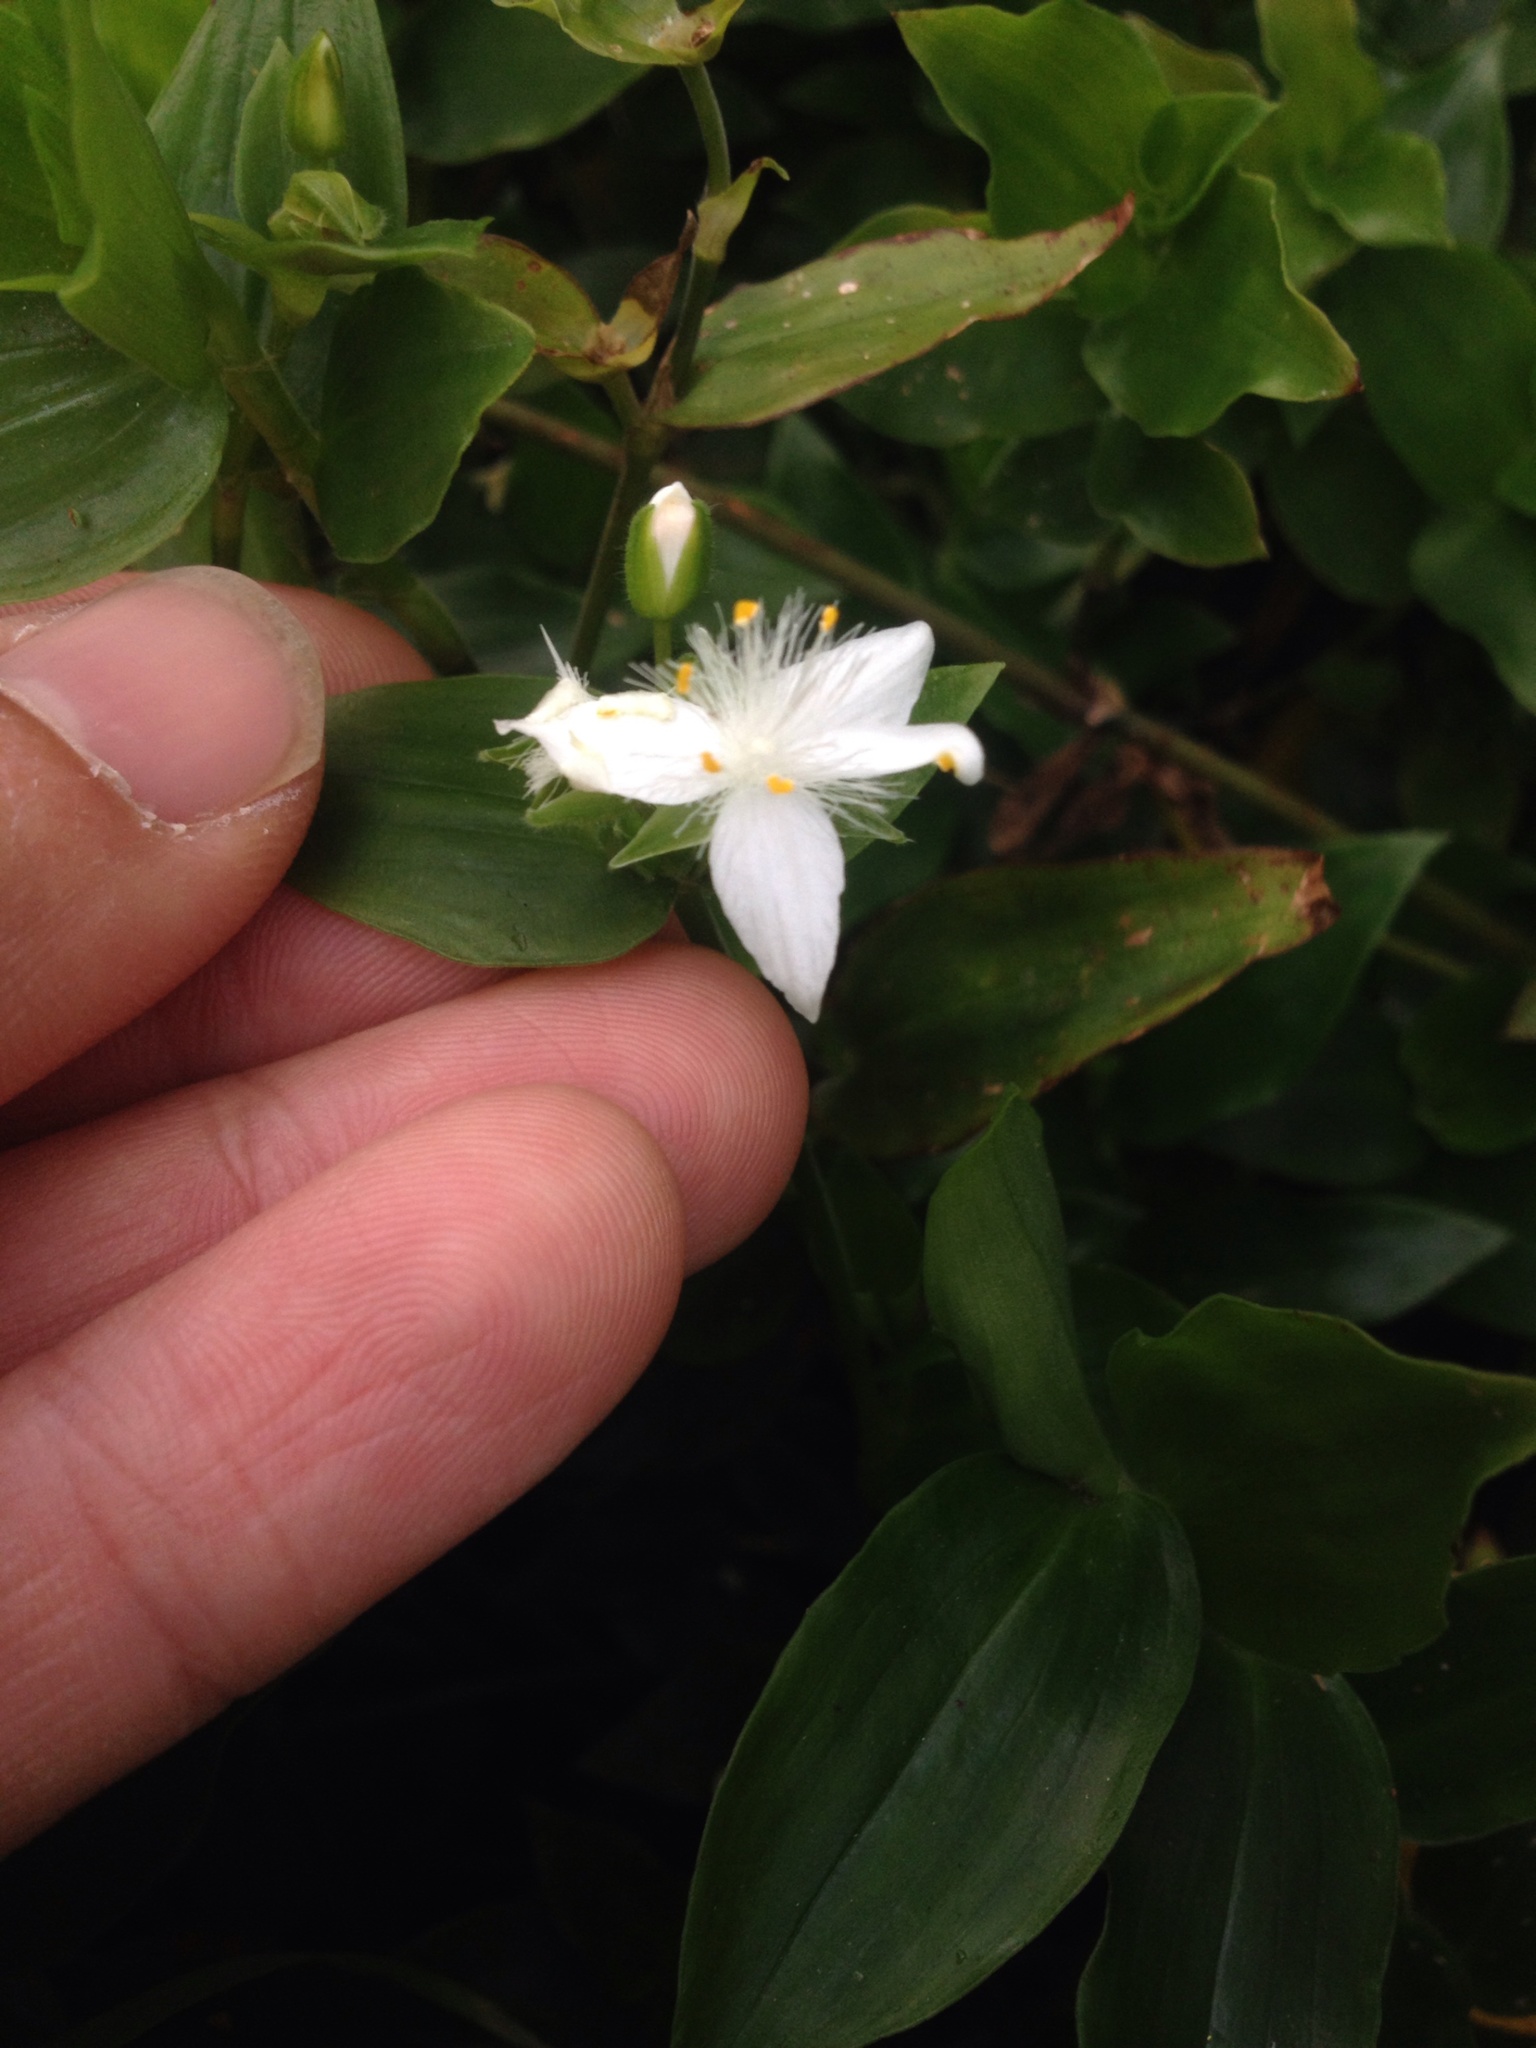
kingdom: Plantae
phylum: Tracheophyta
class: Liliopsida
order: Commelinales
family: Commelinaceae
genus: Tradescantia
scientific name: Tradescantia fluminensis
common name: Wandering-jew
